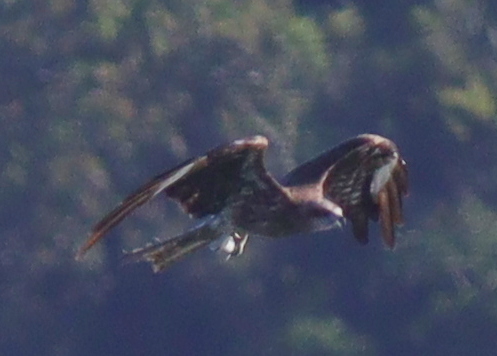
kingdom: Animalia
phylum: Chordata
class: Aves
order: Accipitriformes
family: Accipitridae
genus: Milvus
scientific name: Milvus migrans
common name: Black kite
